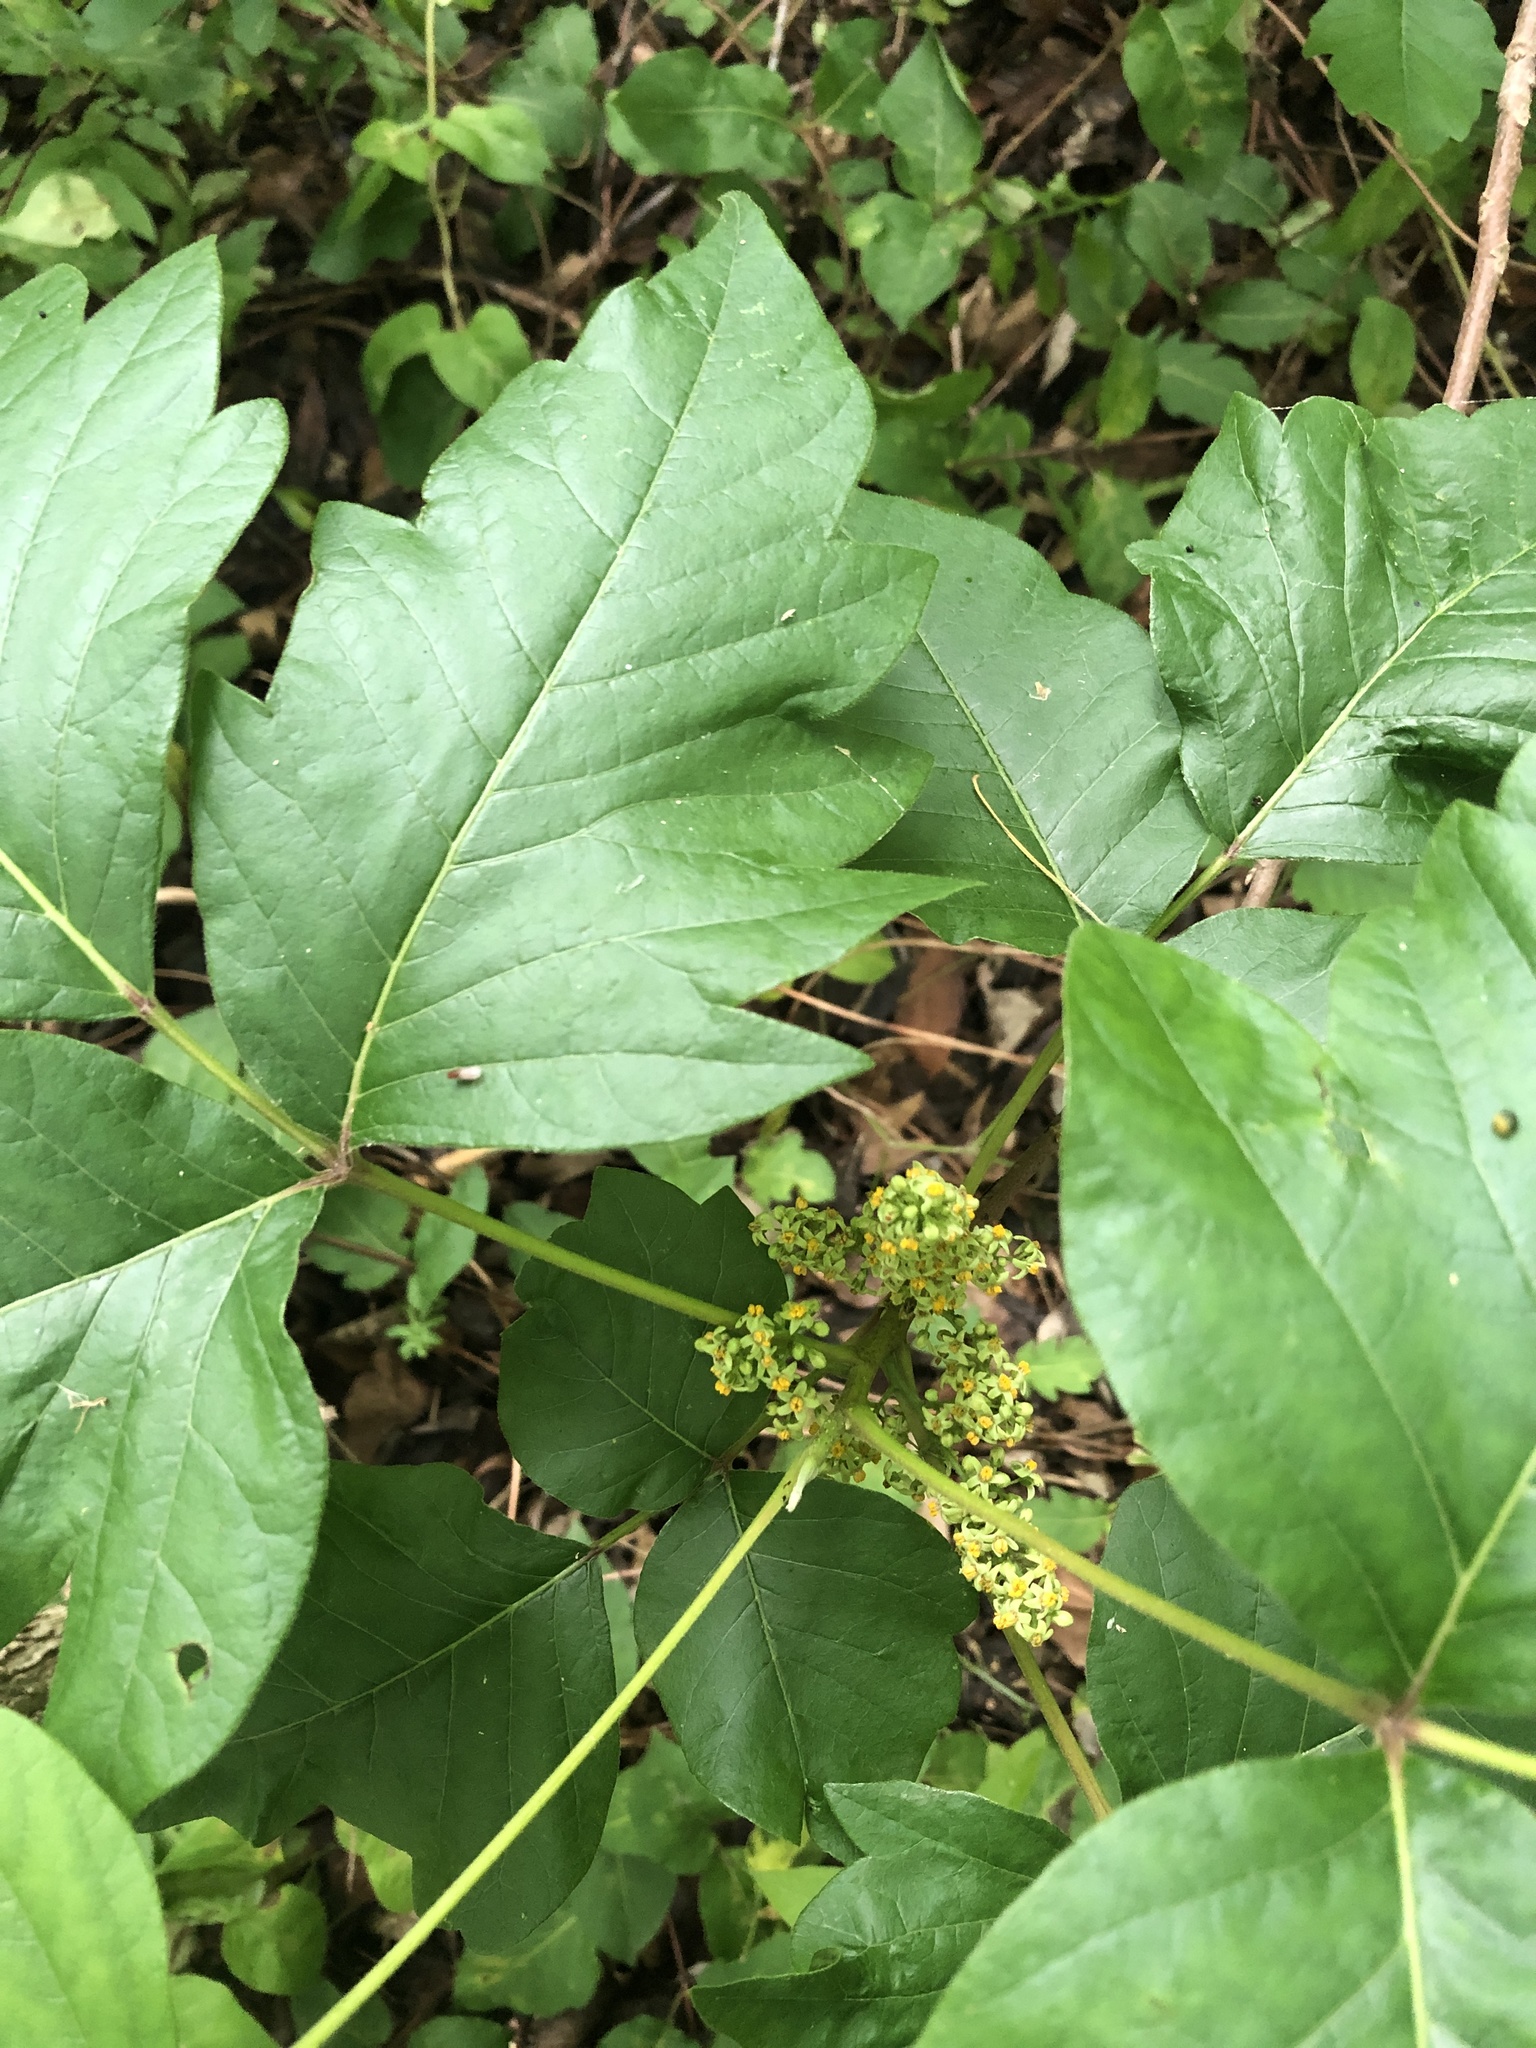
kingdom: Plantae
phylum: Tracheophyta
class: Magnoliopsida
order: Sapindales
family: Anacardiaceae
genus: Toxicodendron
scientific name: Toxicodendron radicans
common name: Poison ivy
